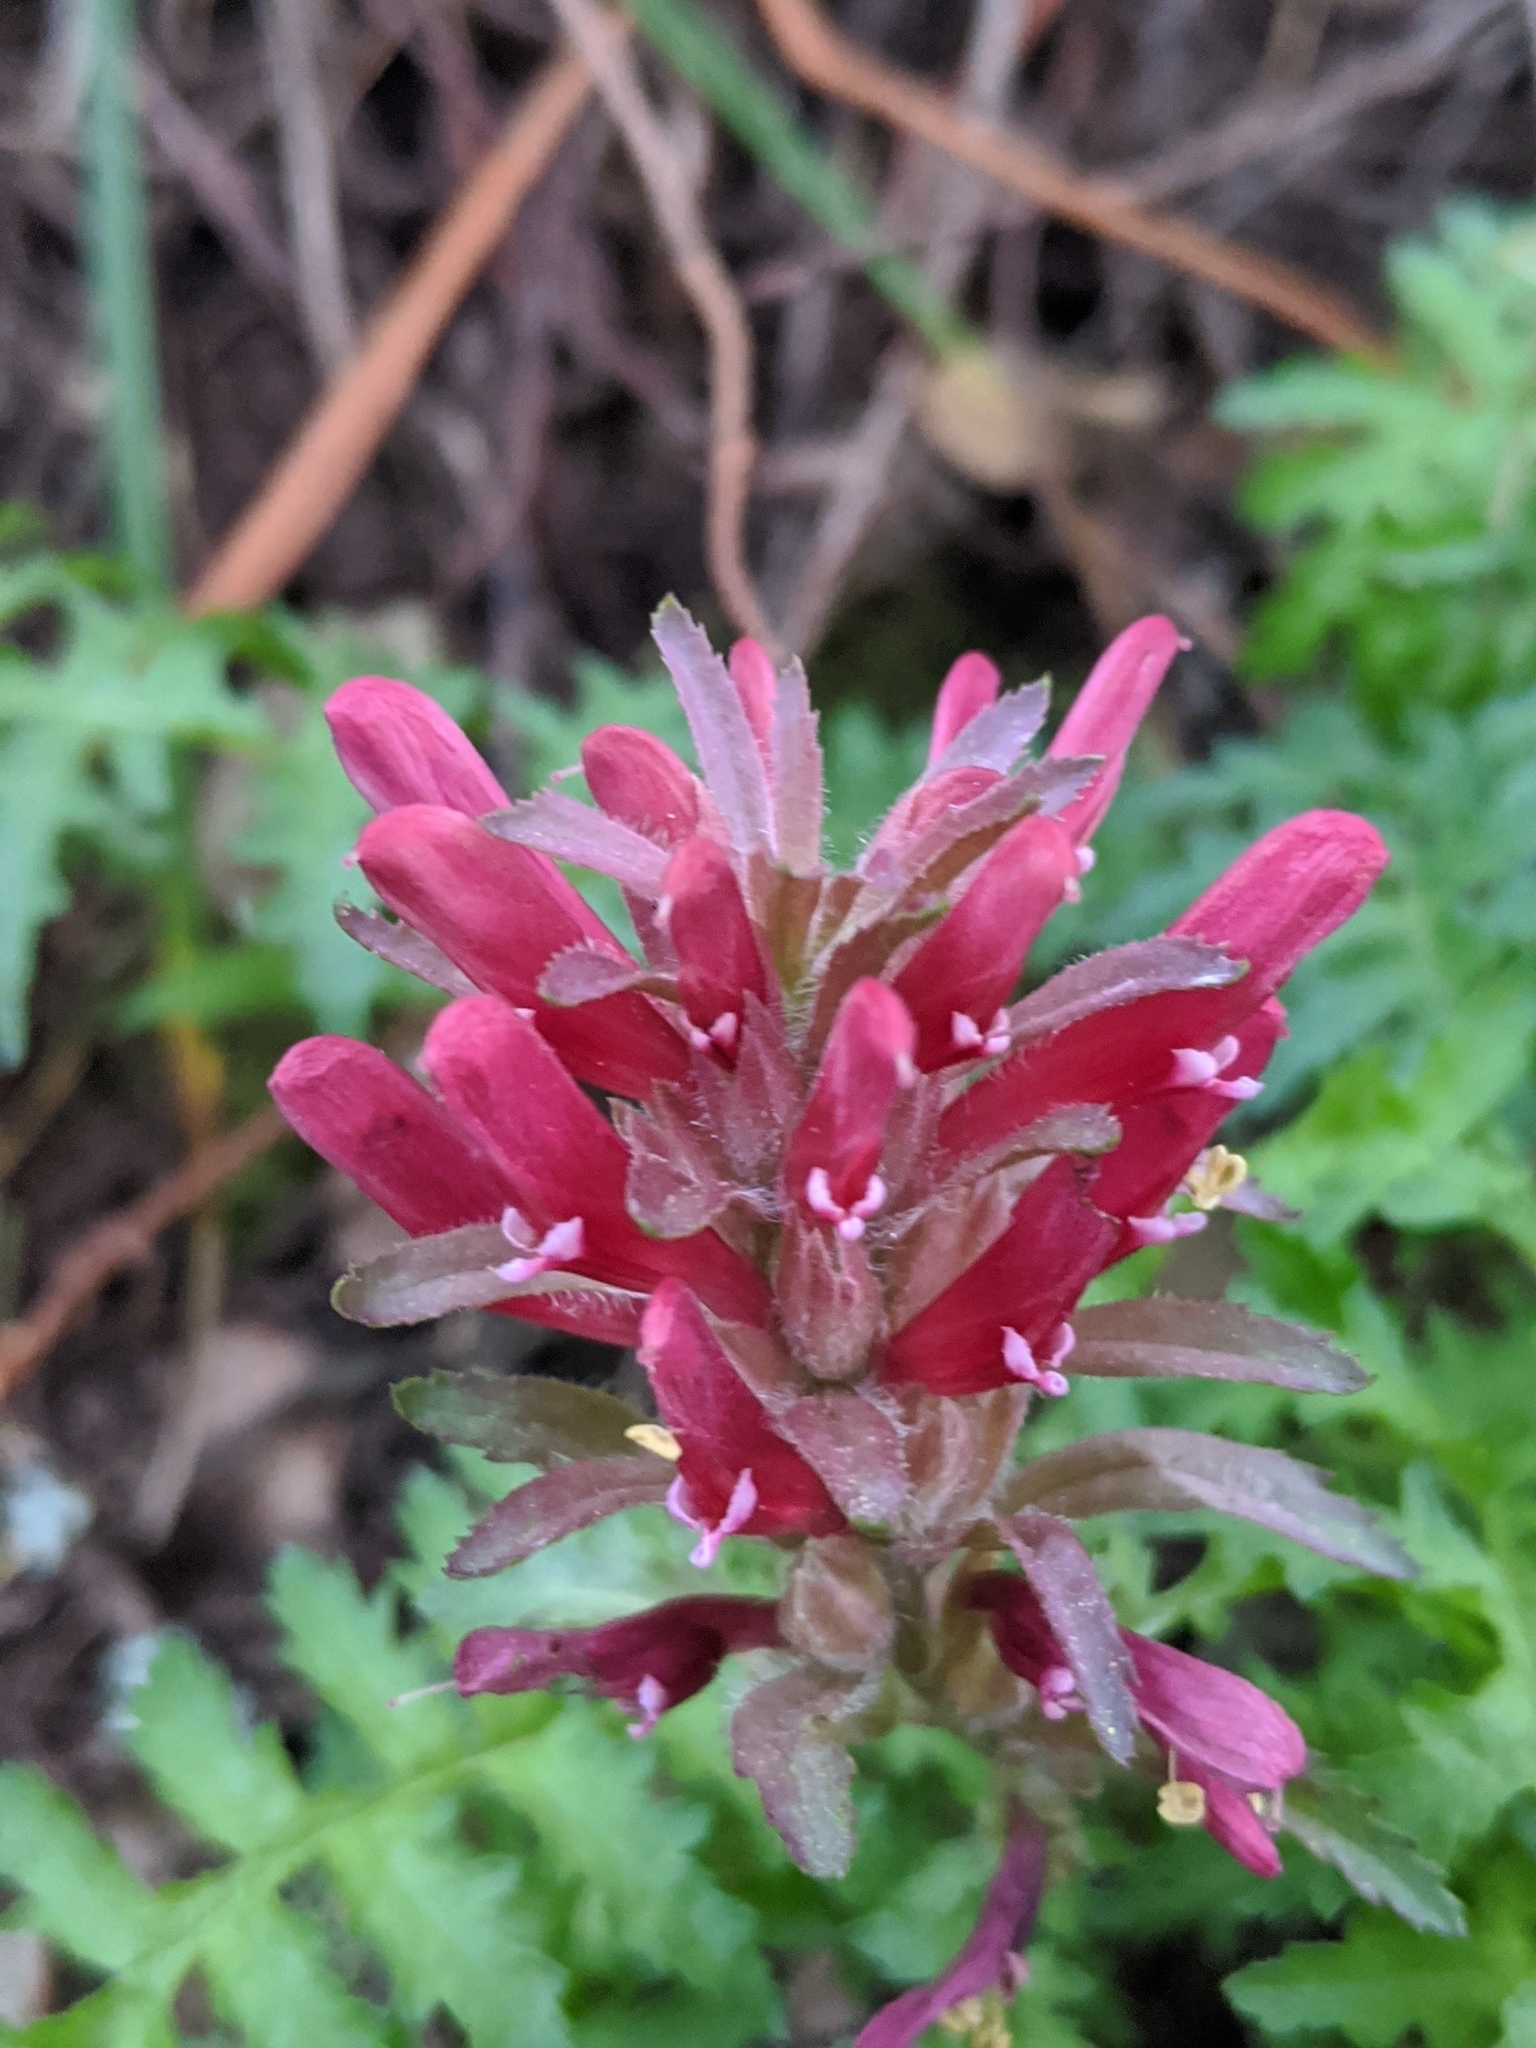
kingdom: Plantae
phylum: Tracheophyta
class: Magnoliopsida
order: Lamiales
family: Orobanchaceae
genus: Pedicularis
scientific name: Pedicularis densiflora
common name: Indian warrior
